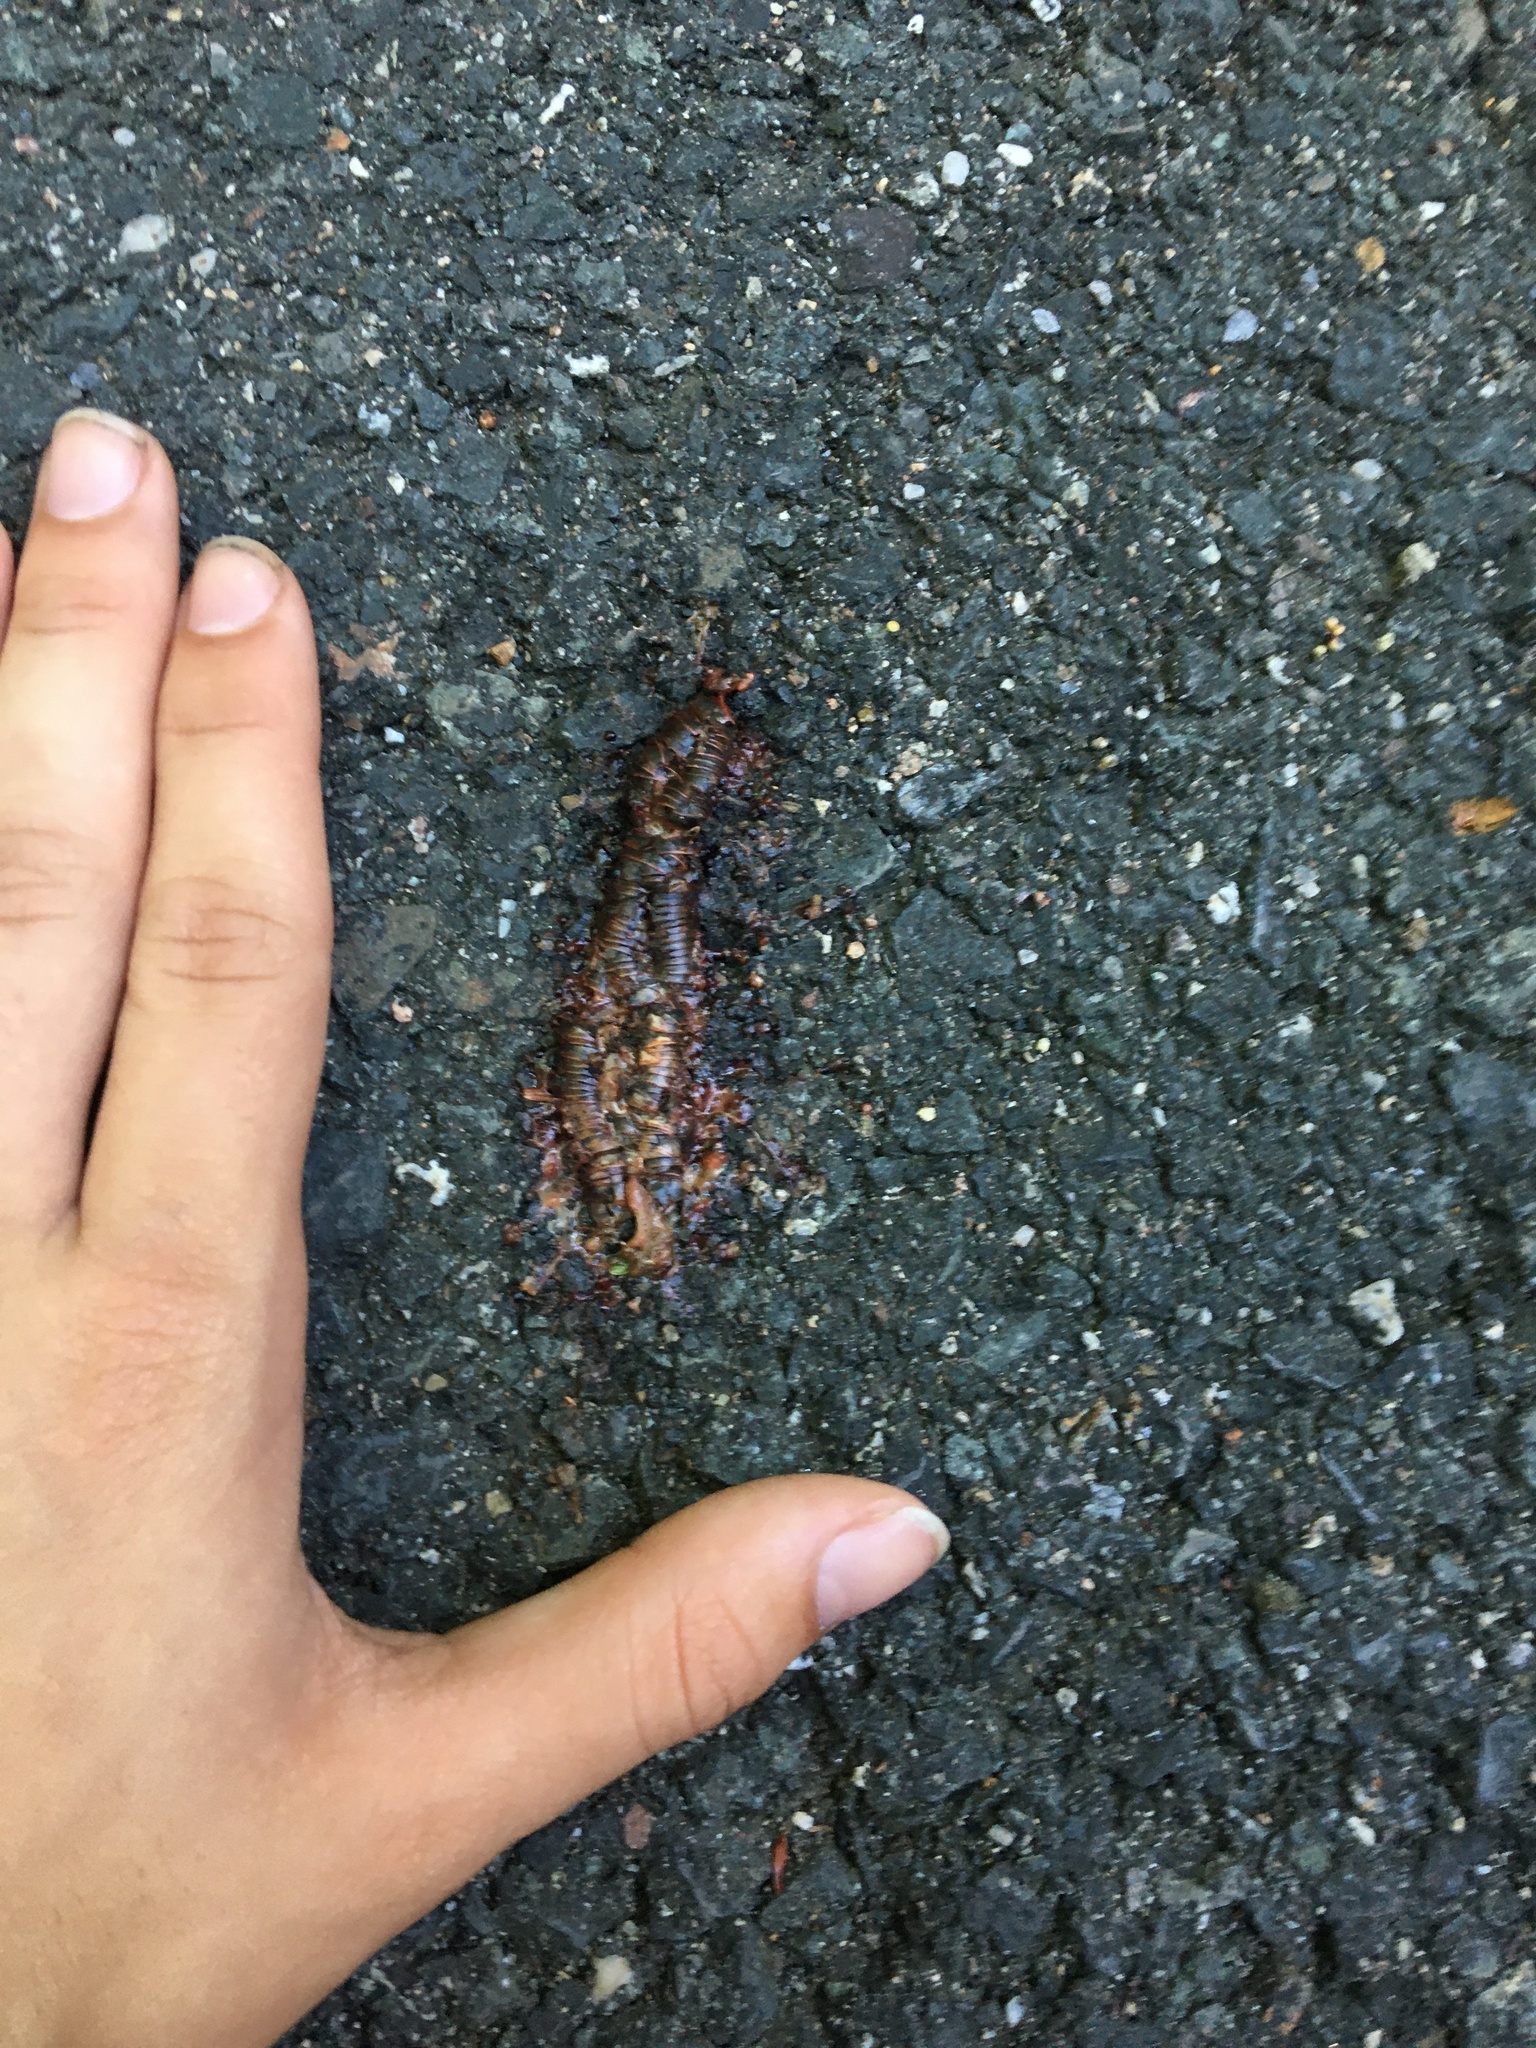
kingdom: Animalia
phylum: Arthropoda
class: Diplopoda
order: Spirobolida
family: Spirobolidae
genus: Narceus
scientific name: Narceus
